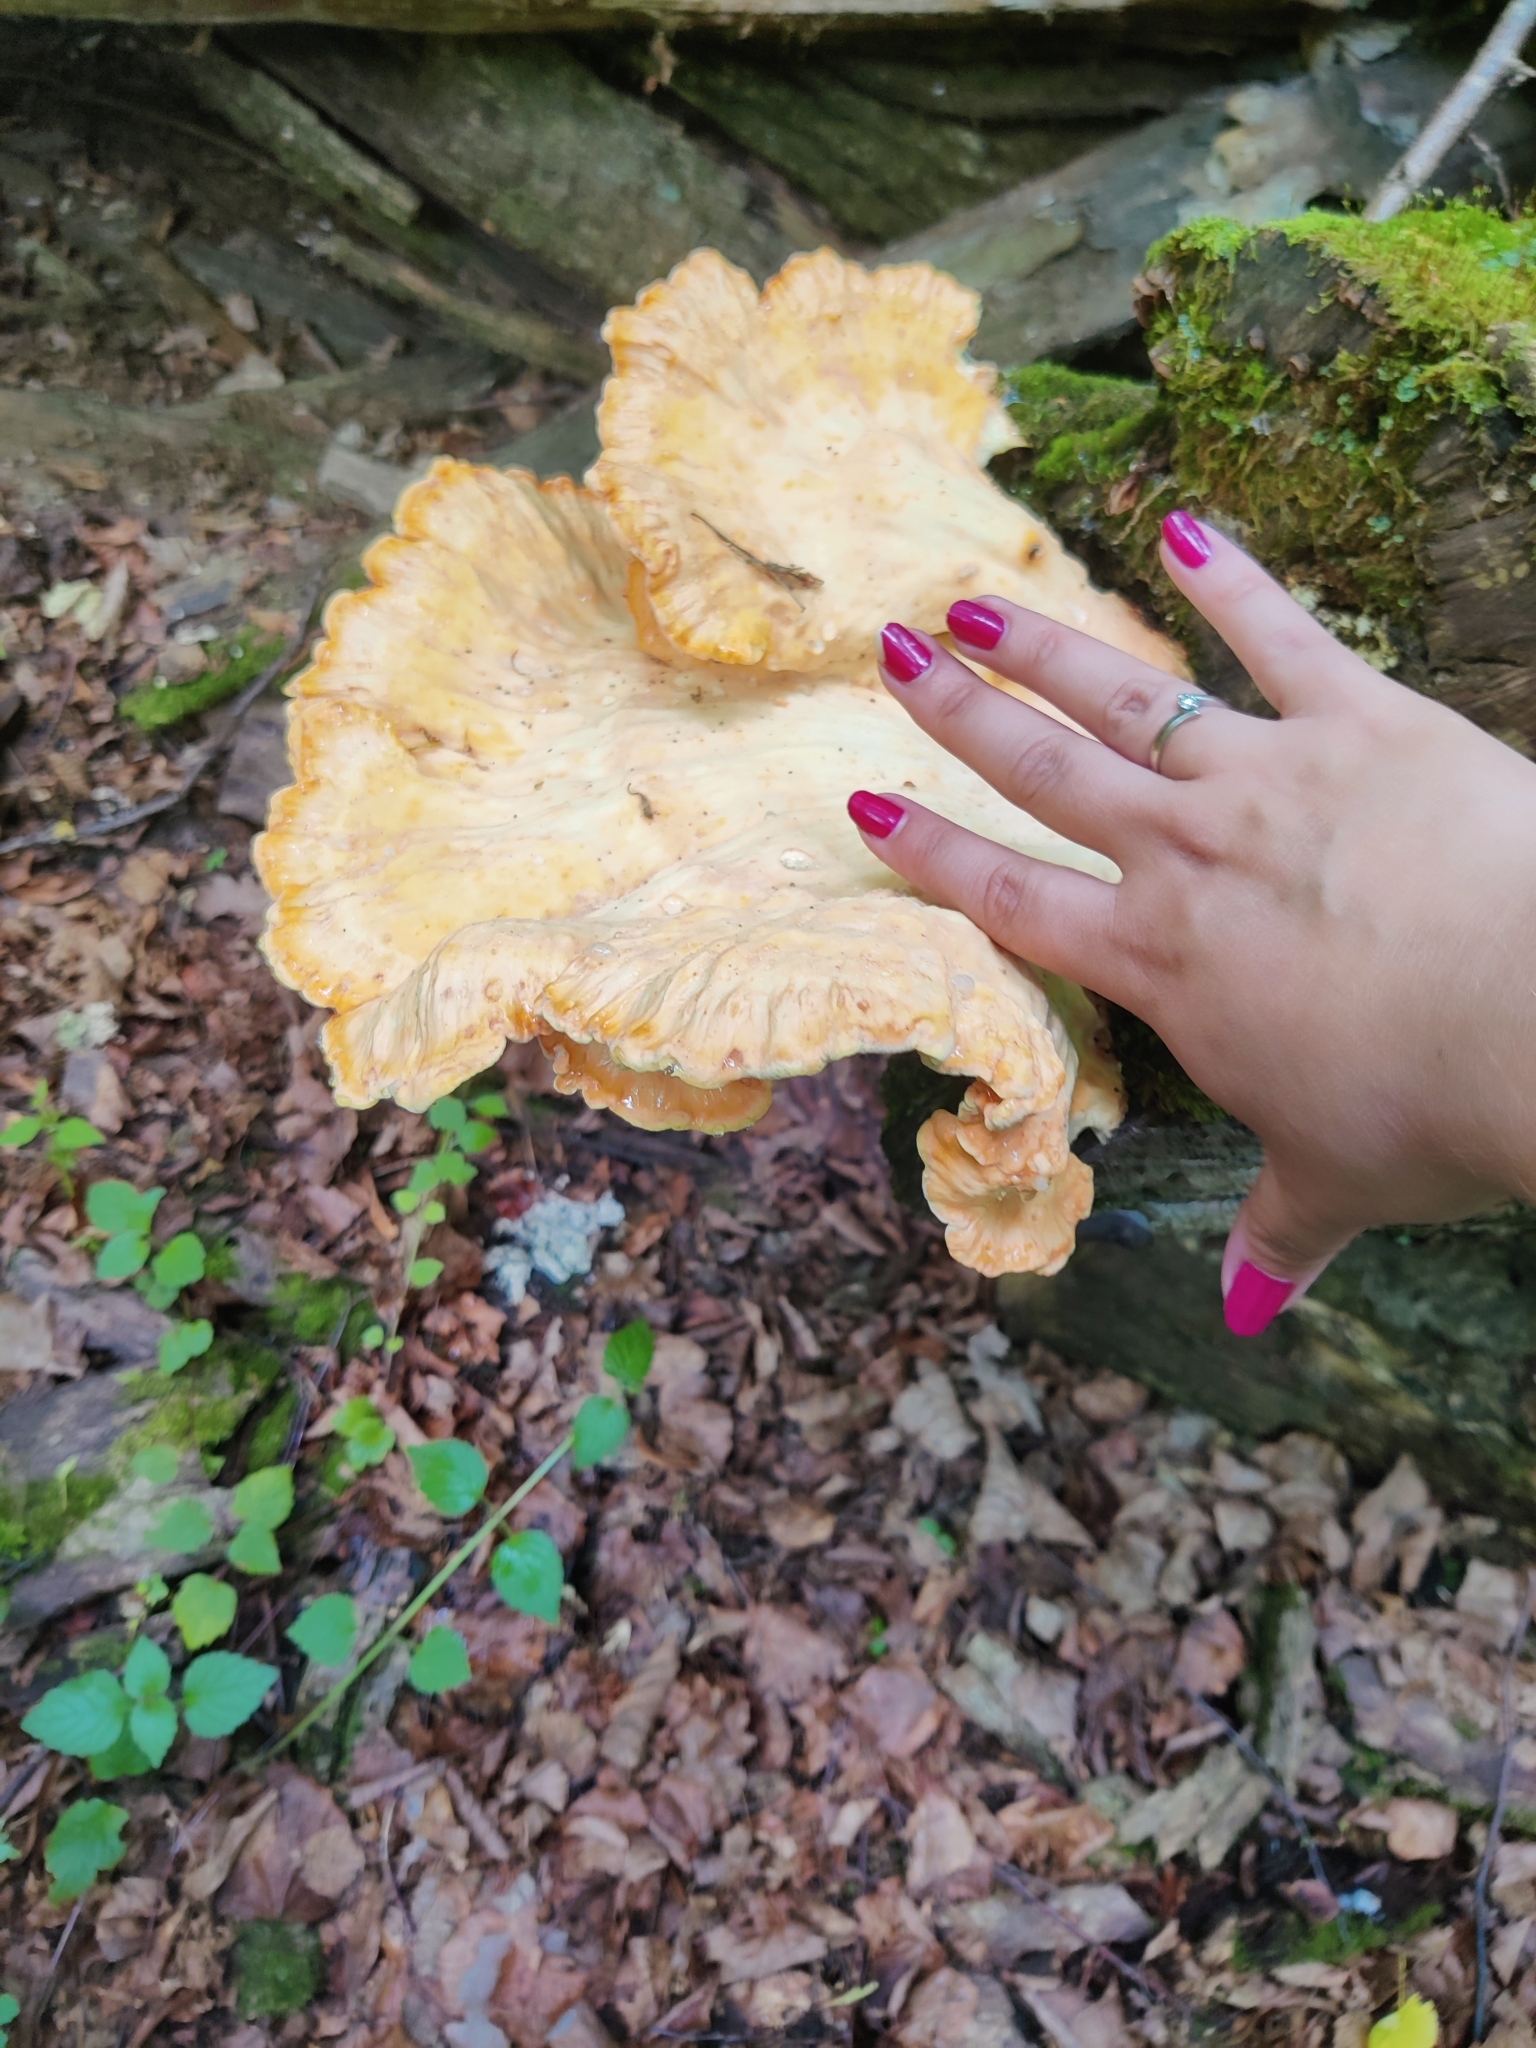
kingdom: Fungi
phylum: Basidiomycota
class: Agaricomycetes
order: Polyporales
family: Laetiporaceae
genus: Laetiporus
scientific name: Laetiporus sulphureus
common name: Chicken of the woods
